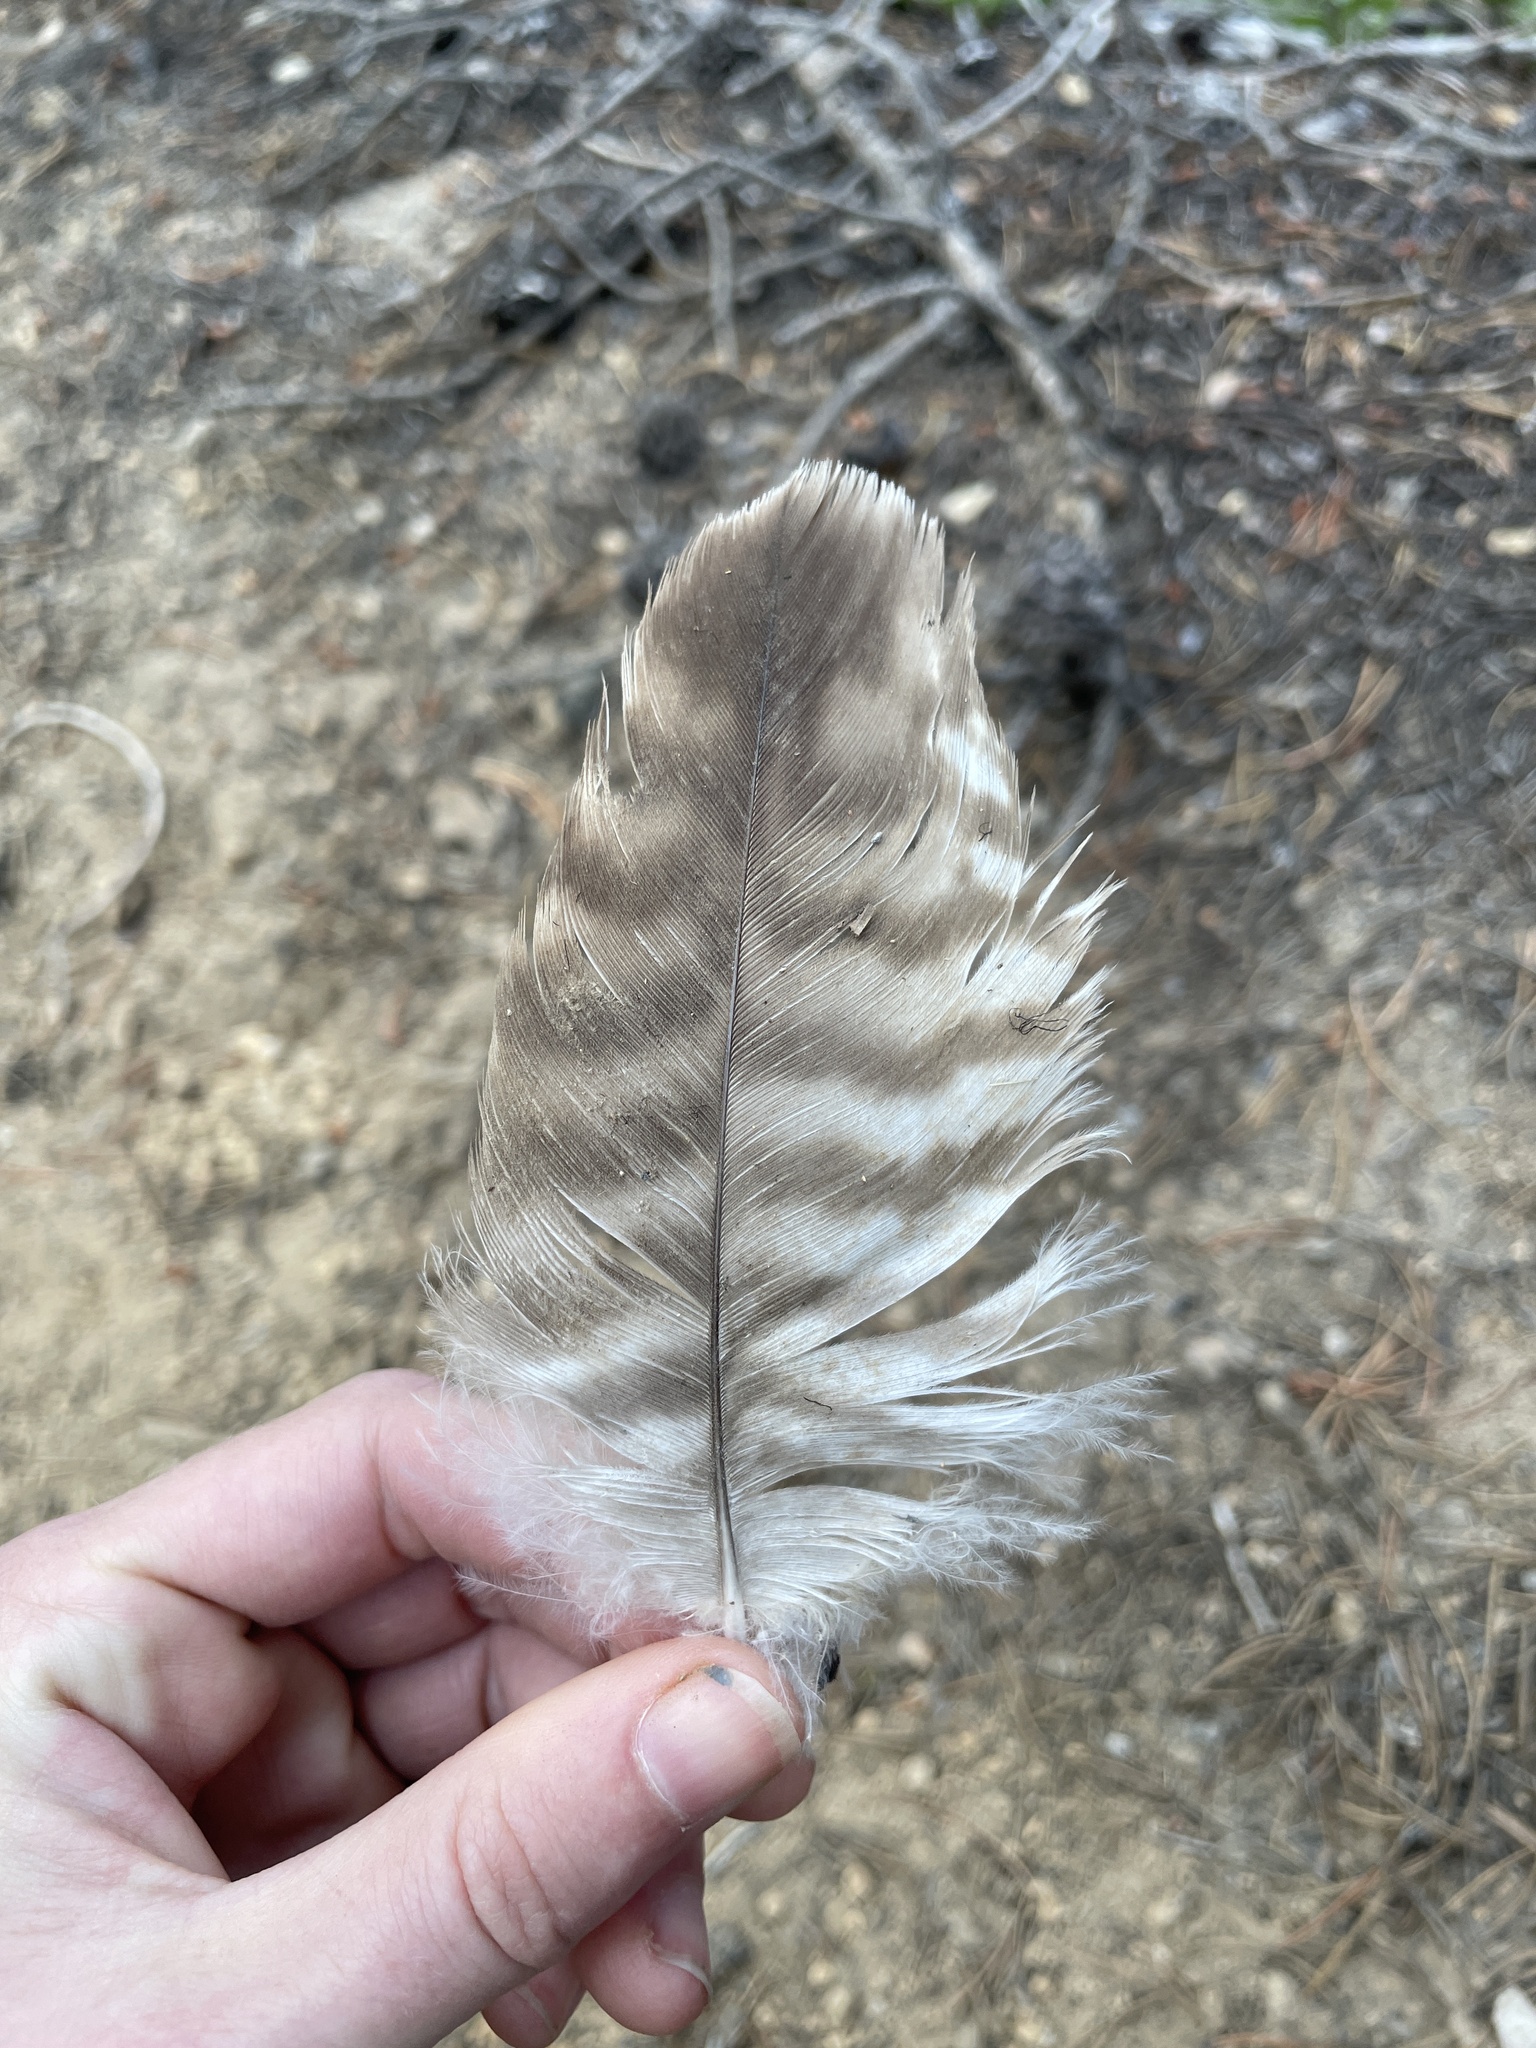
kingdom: Animalia
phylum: Chordata
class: Aves
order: Accipitriformes
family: Accipitridae
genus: Buteo
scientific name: Buteo jamaicensis
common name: Red-tailed hawk
